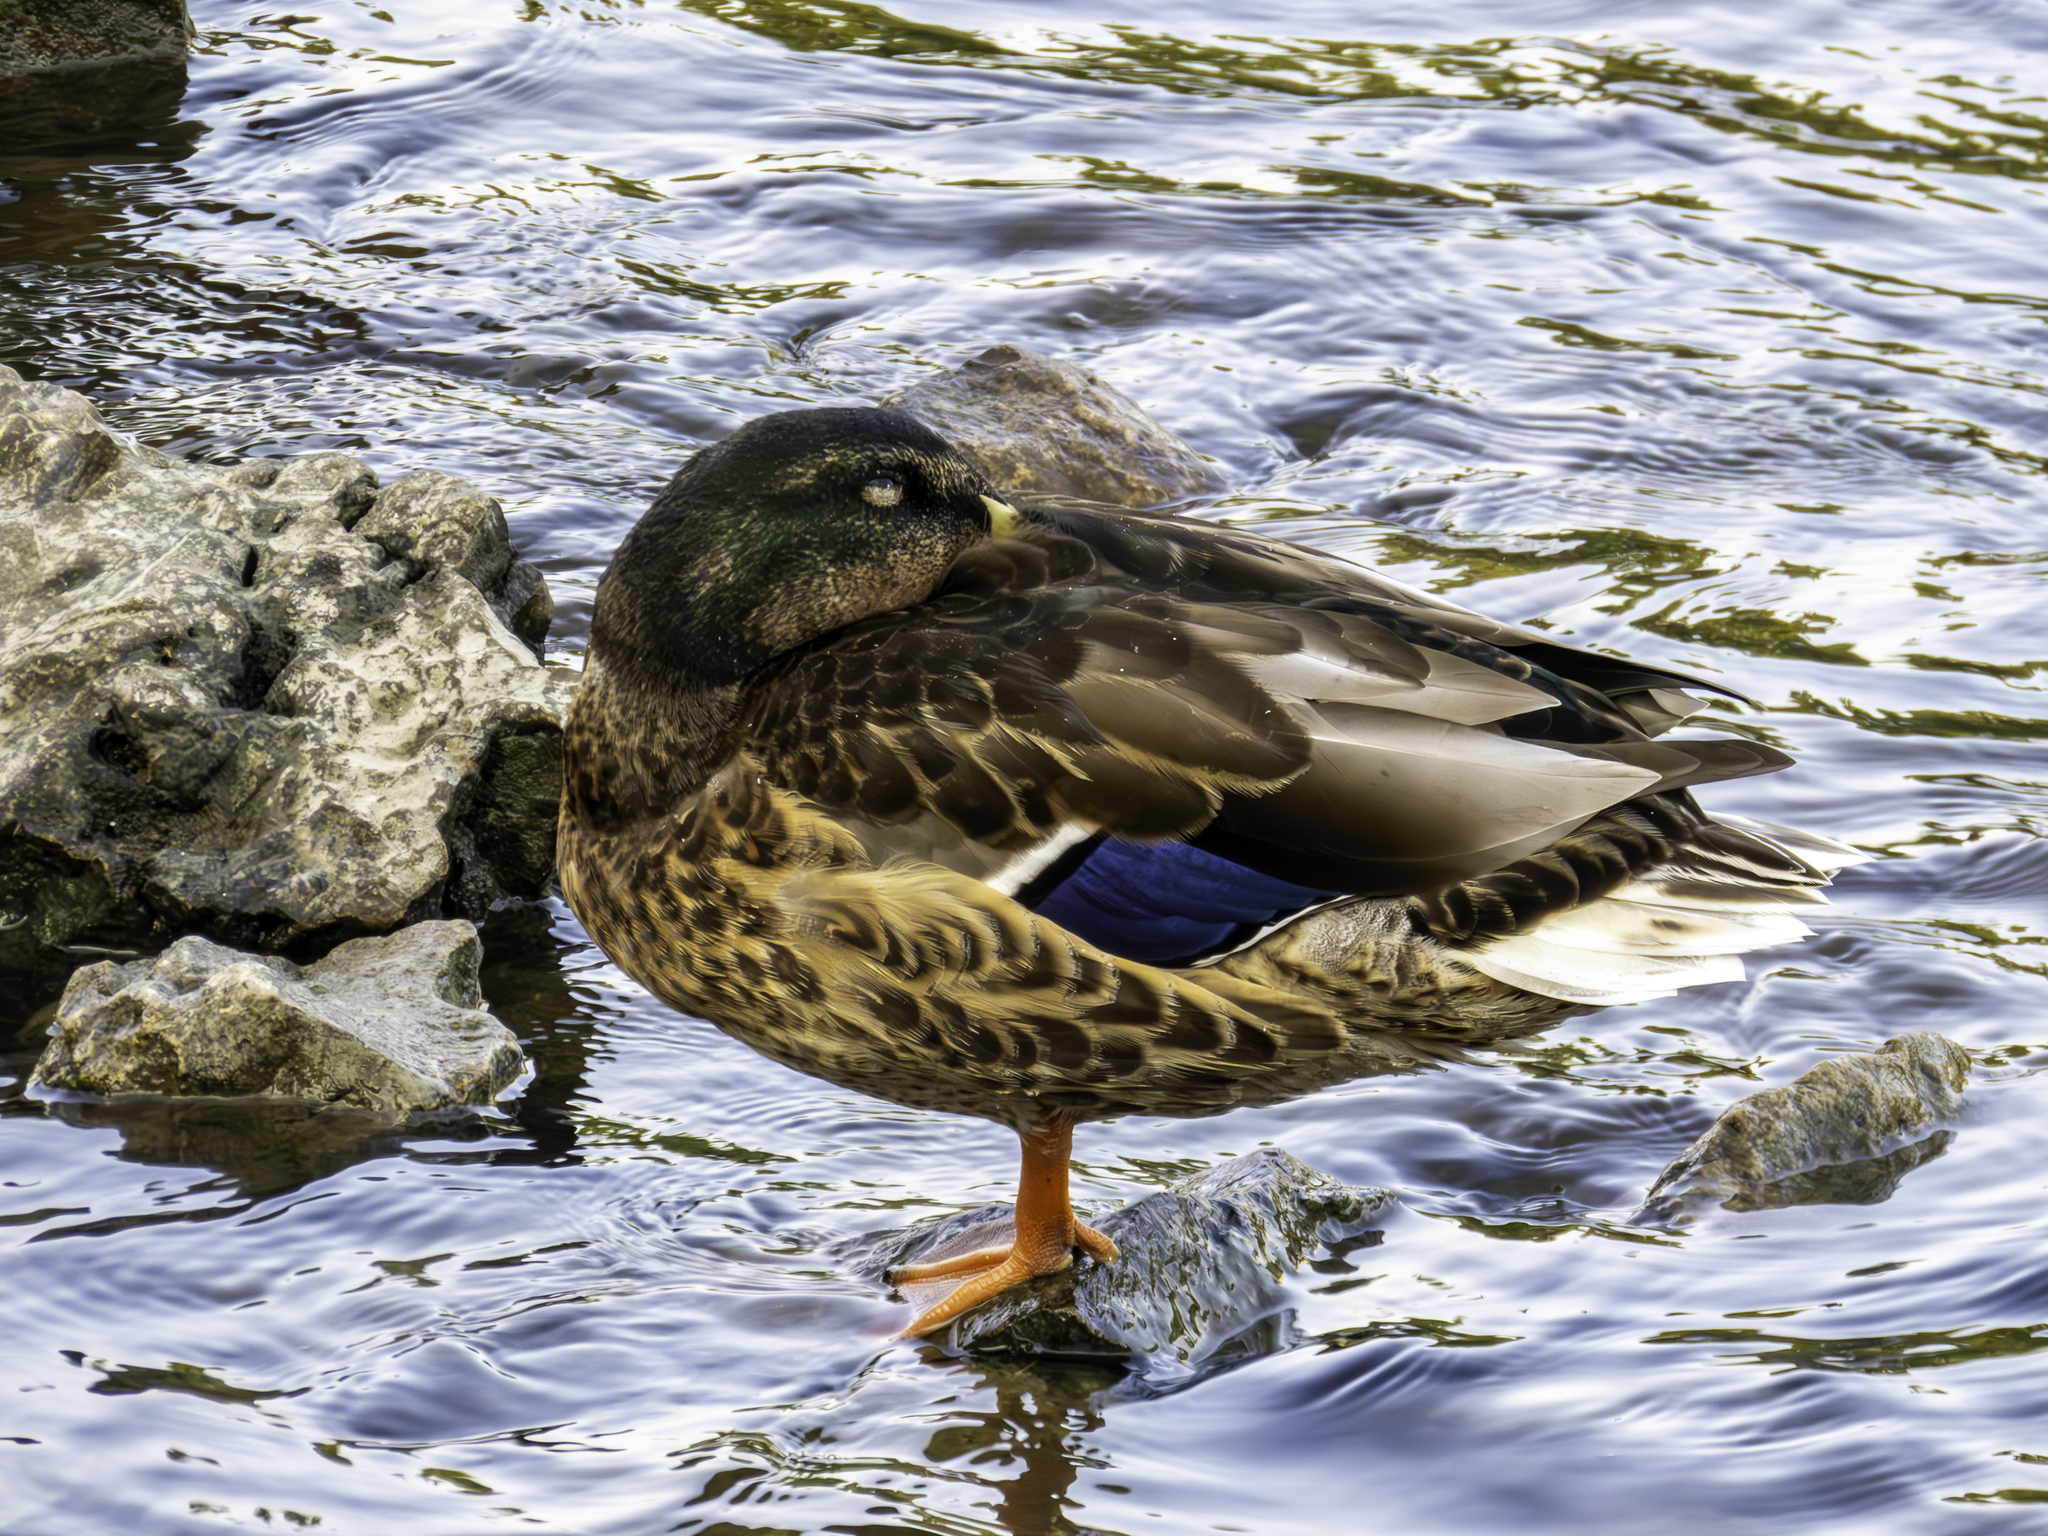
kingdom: Animalia
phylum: Chordata
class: Aves
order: Anseriformes
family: Anatidae
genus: Anas
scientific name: Anas platyrhynchos
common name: Mallard
